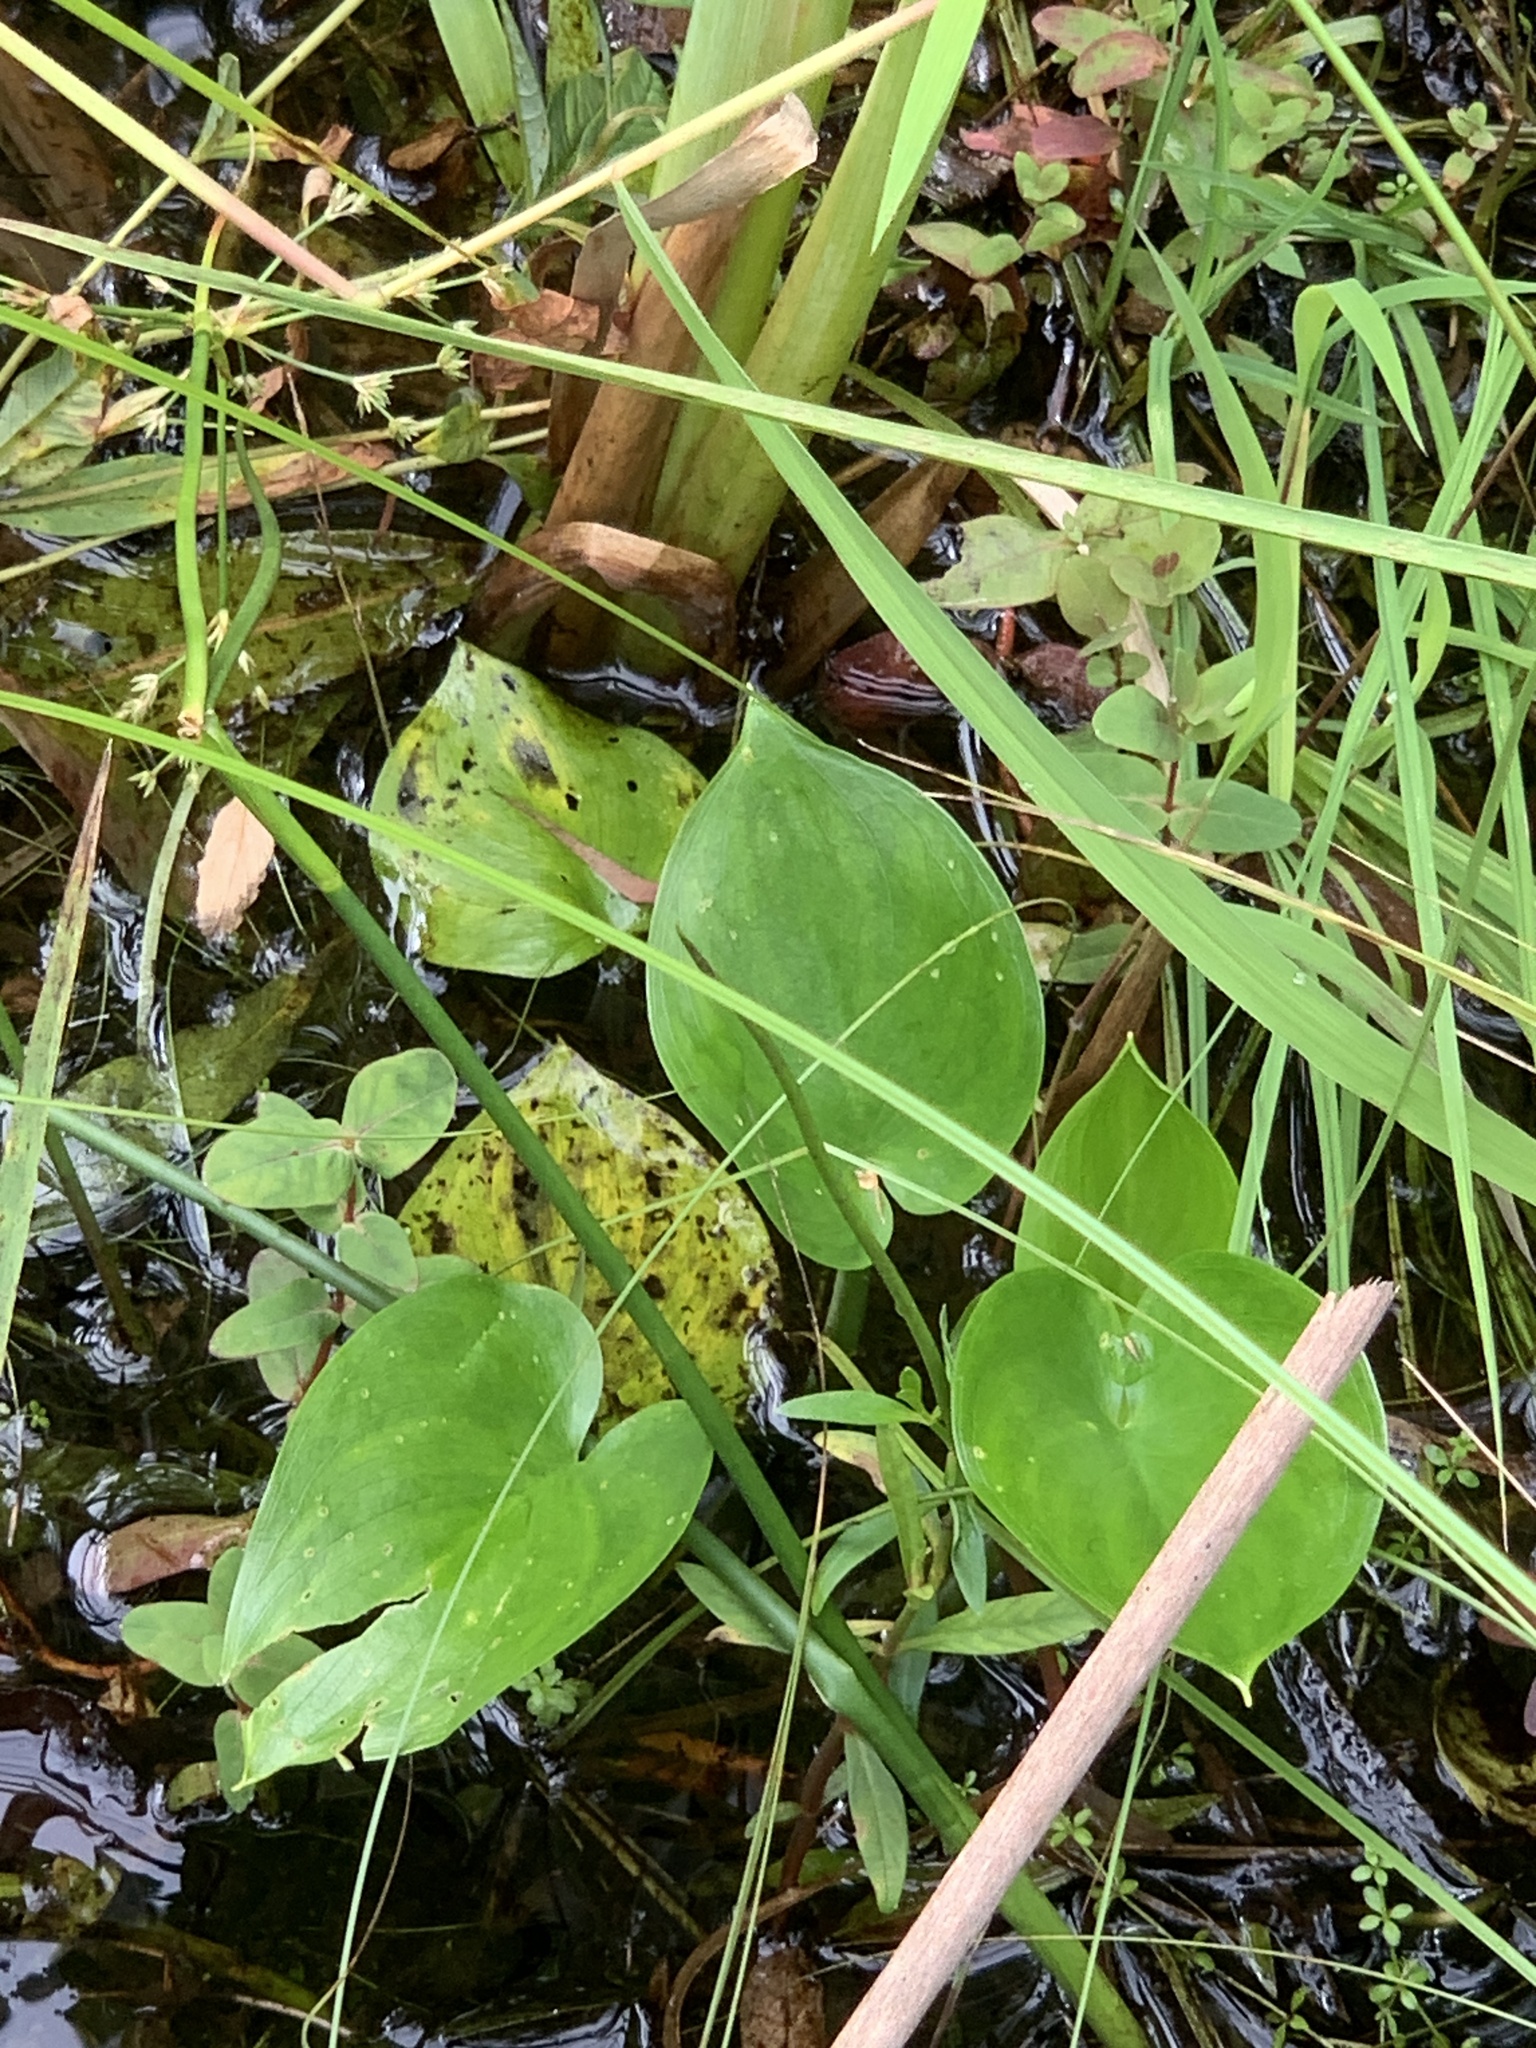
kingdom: Plantae
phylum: Tracheophyta
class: Liliopsida
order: Alismatales
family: Araceae
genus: Calla
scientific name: Calla palustris
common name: Bog arum
